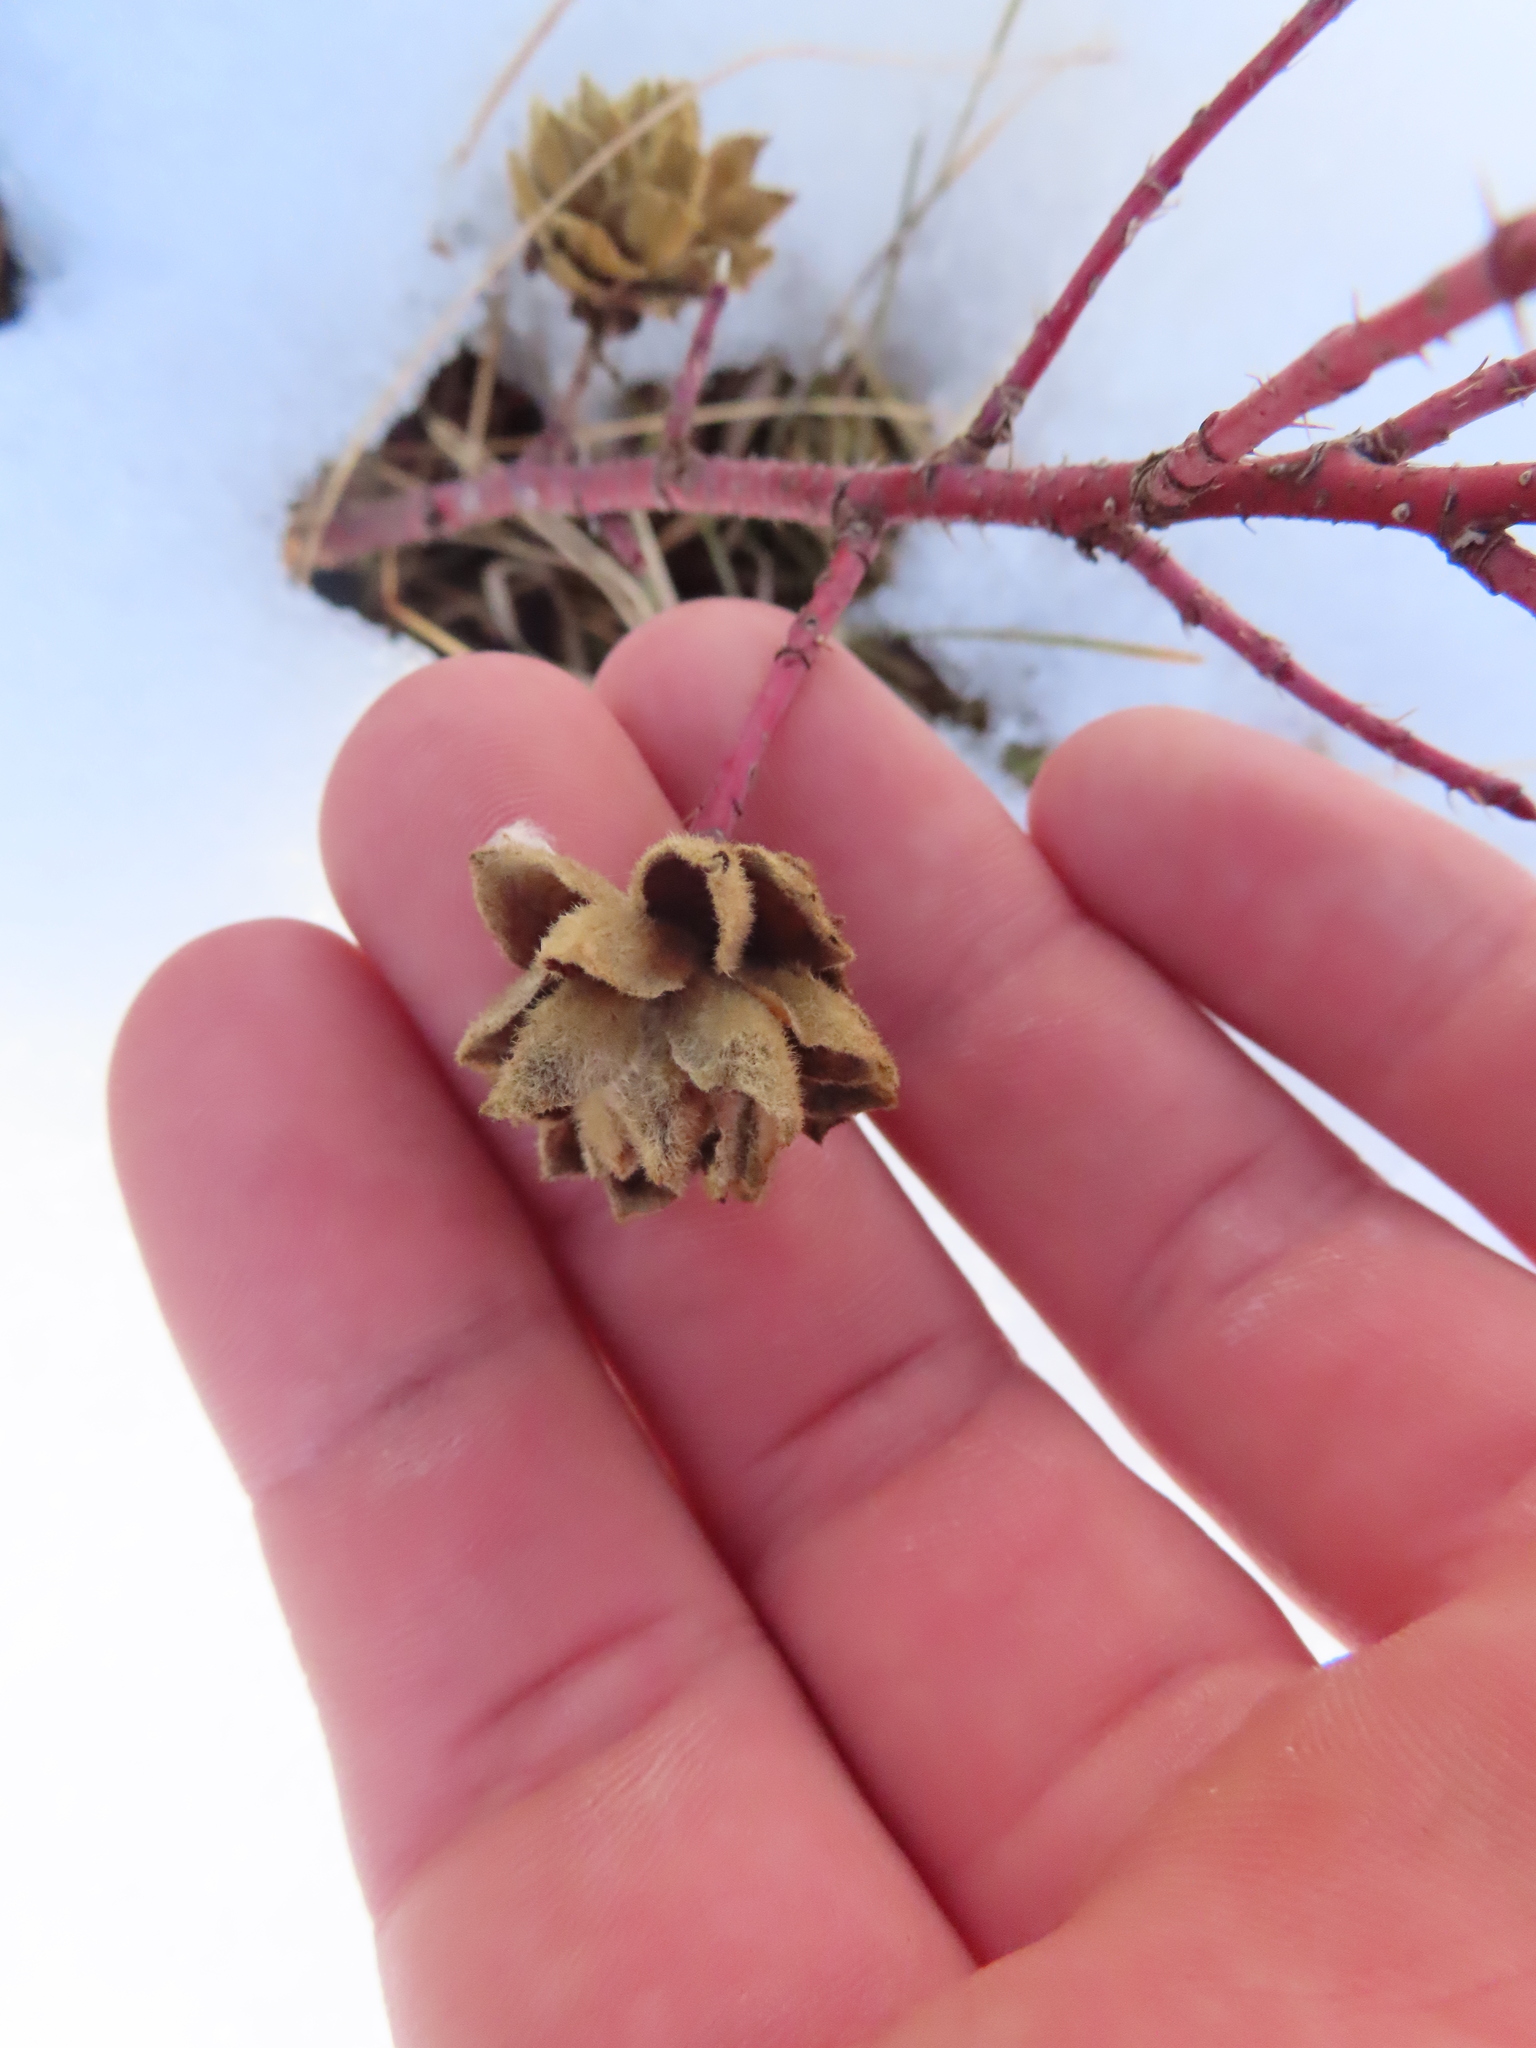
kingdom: Animalia
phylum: Arthropoda
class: Insecta
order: Diptera
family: Cecidomyiidae
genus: Rabdophaga
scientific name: Rabdophaga rosacea
